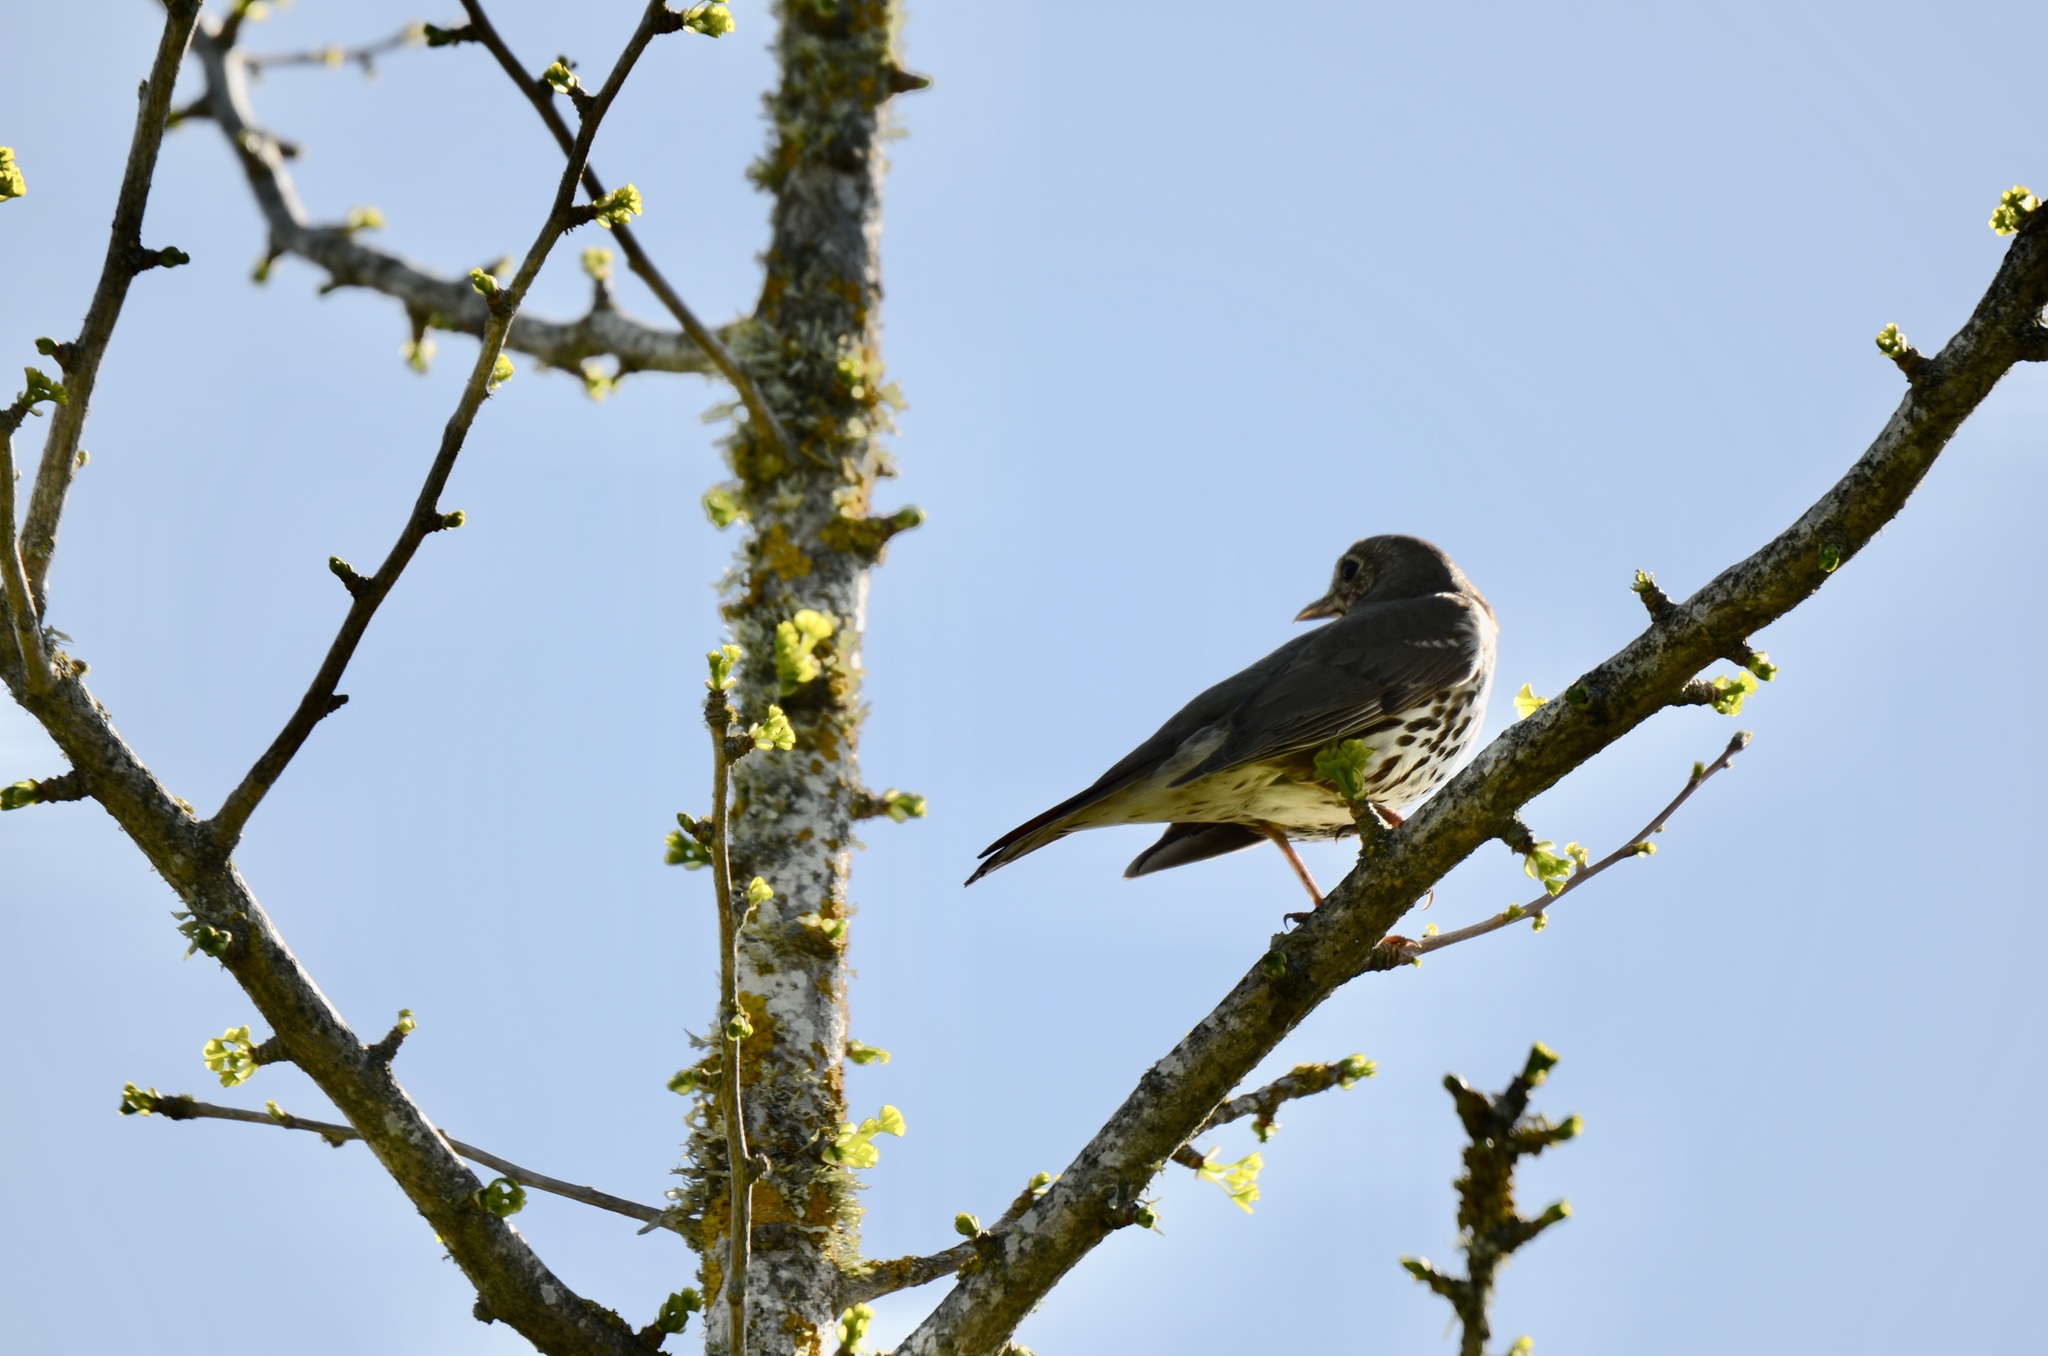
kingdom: Animalia
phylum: Chordata
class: Aves
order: Passeriformes
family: Turdidae
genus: Turdus
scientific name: Turdus philomelos
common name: Song thrush
